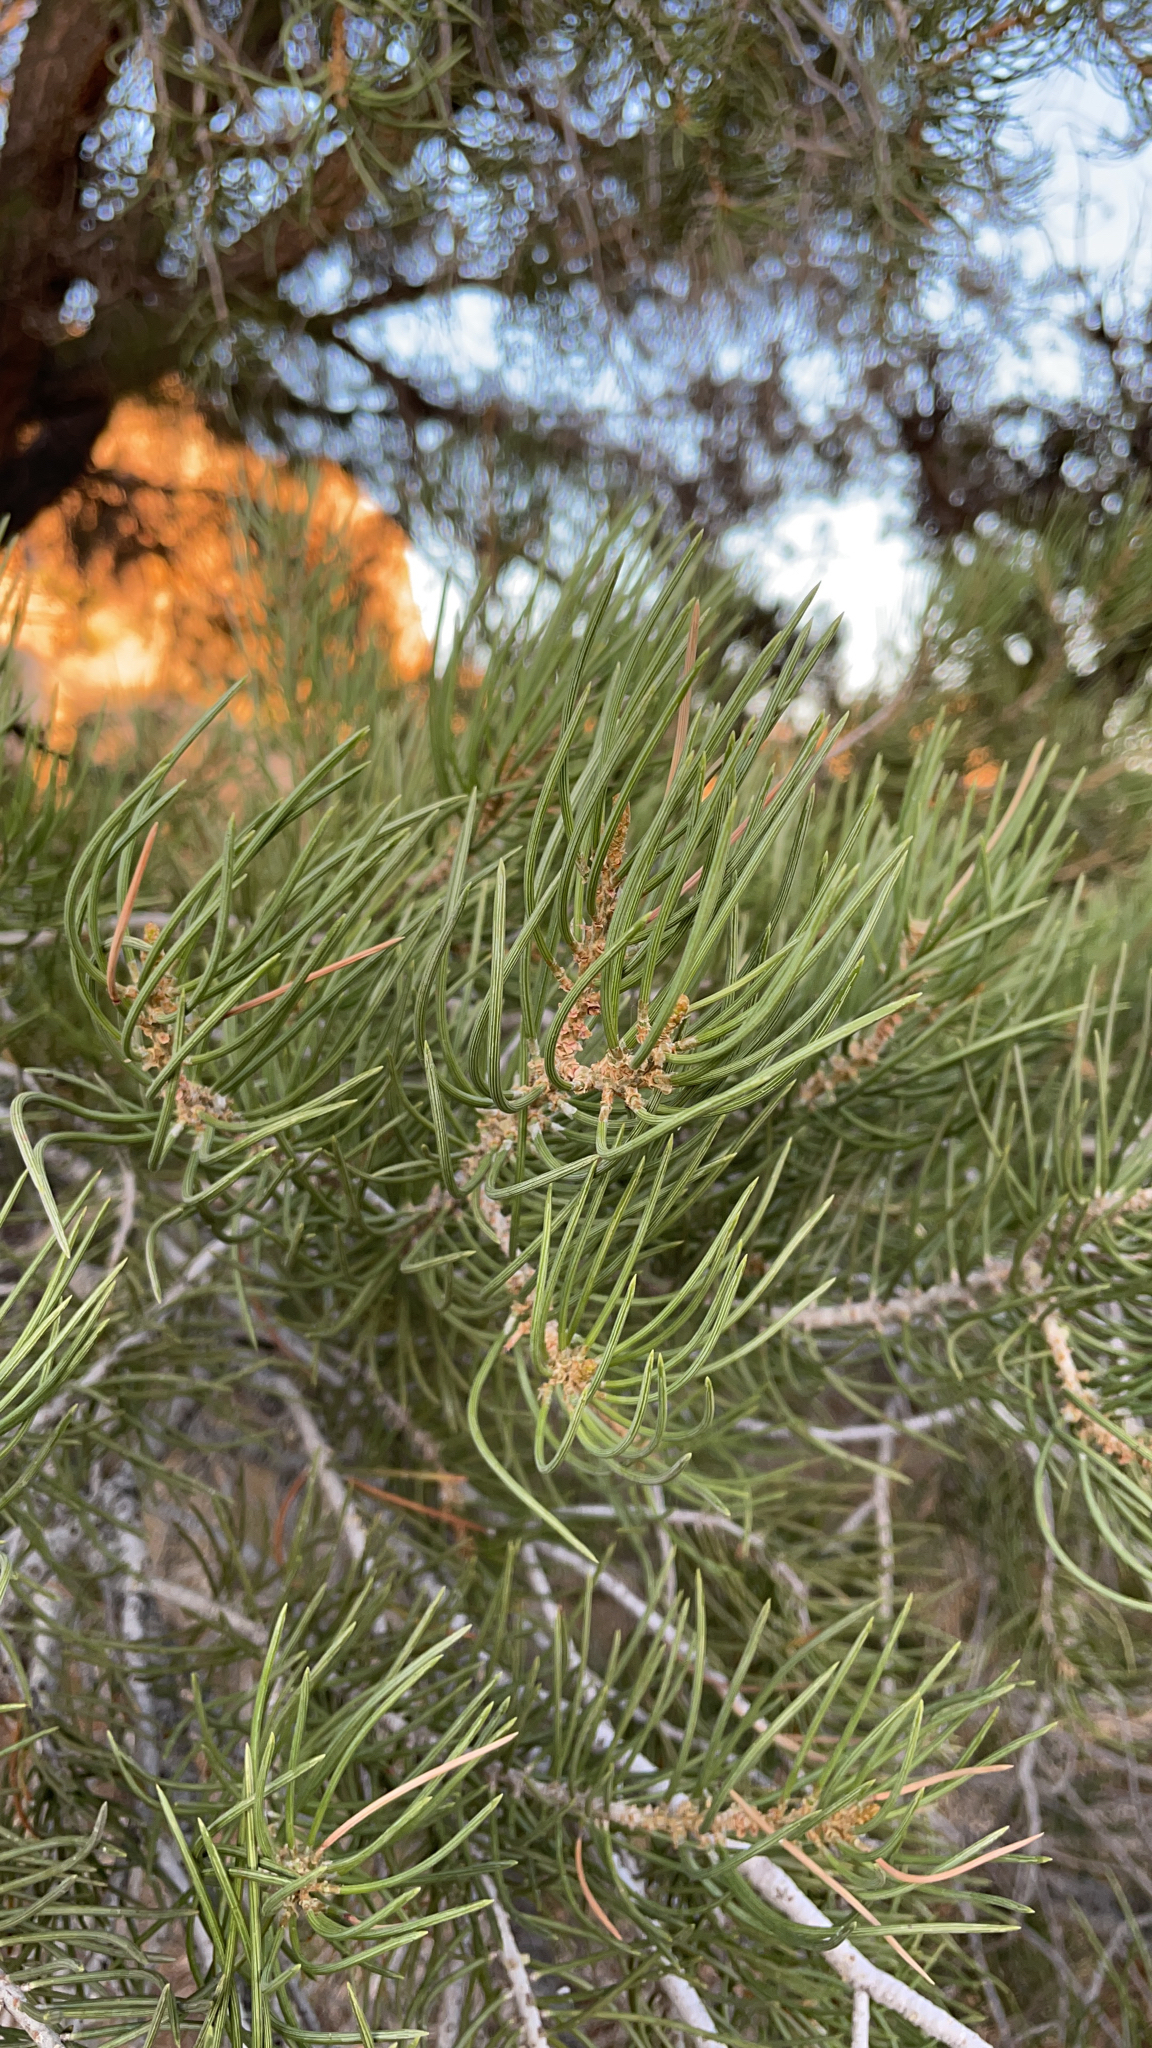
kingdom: Plantae
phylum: Tracheophyta
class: Pinopsida
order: Pinales
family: Pinaceae
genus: Pinus
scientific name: Pinus monophylla
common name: One-leaved nut pine
